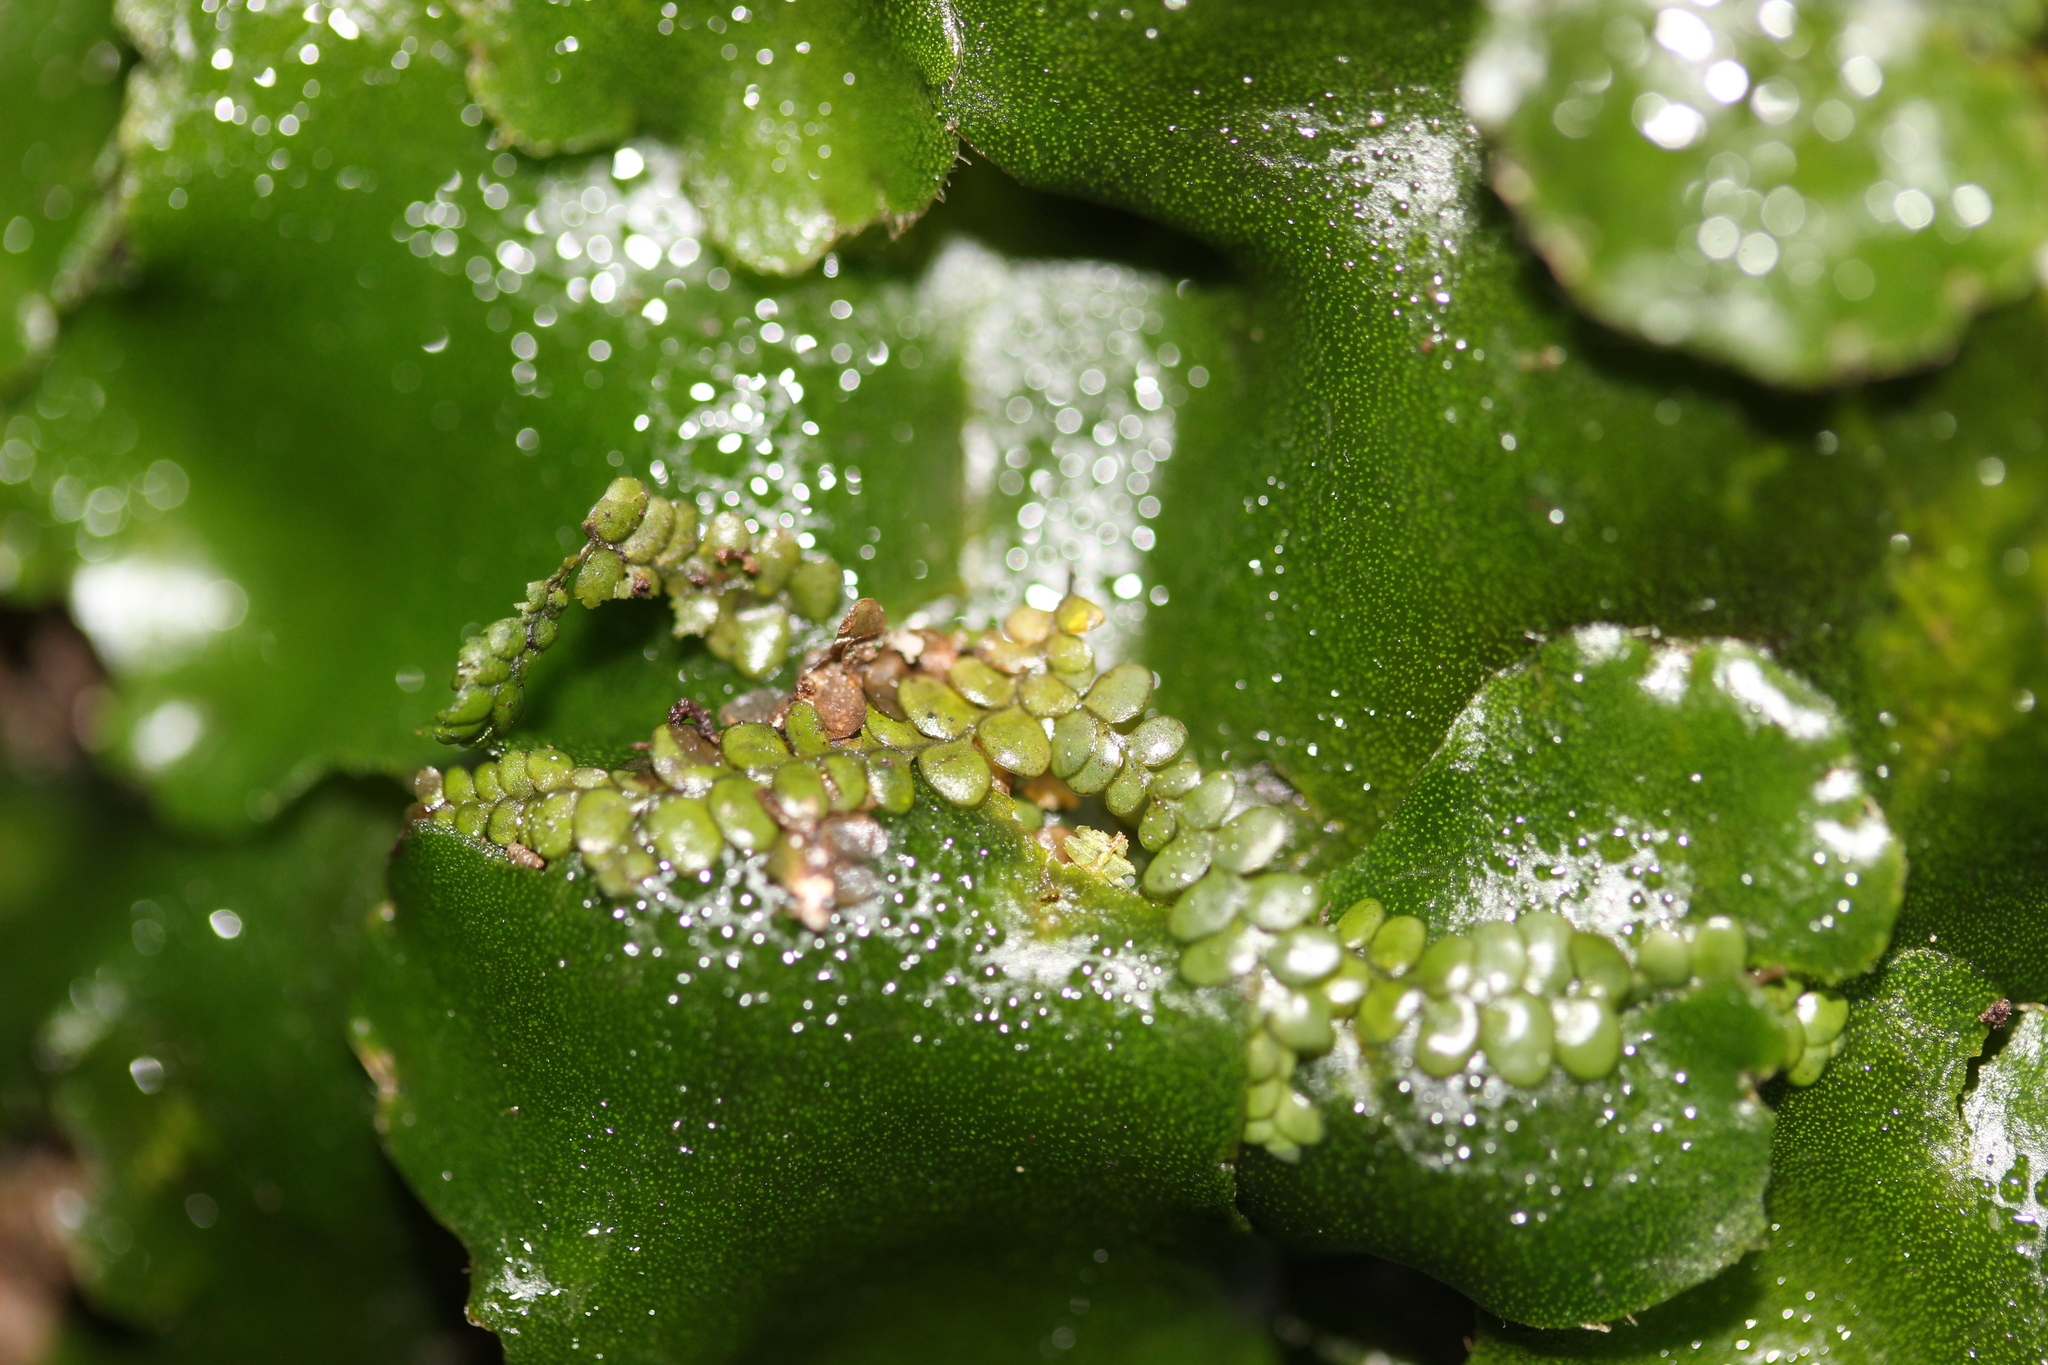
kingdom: Plantae
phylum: Marchantiophyta
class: Jungermanniopsida
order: Porellales
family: Radulaceae
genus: Radula
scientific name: Radula marginata
